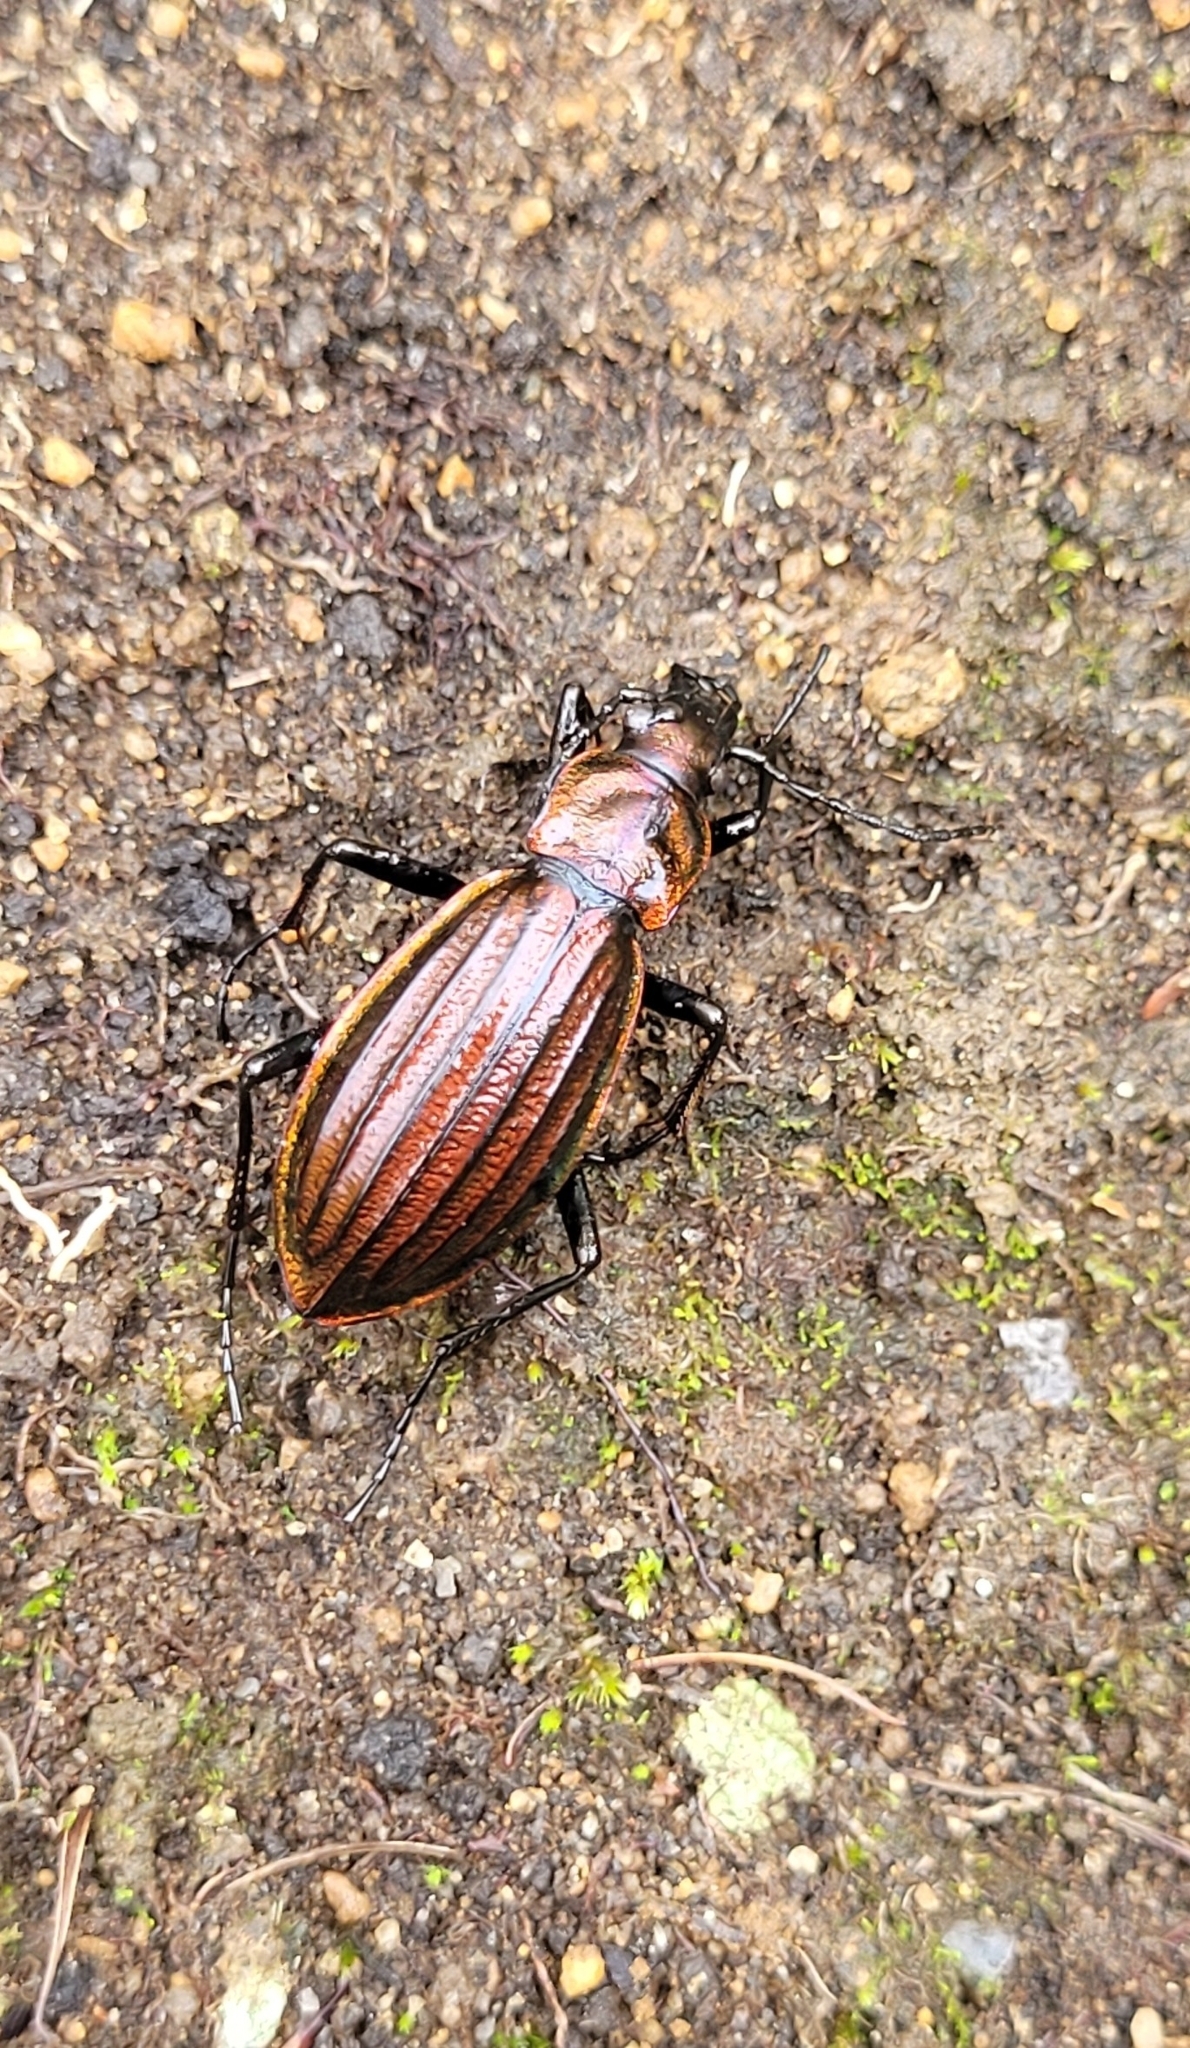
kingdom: Animalia
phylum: Arthropoda
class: Insecta
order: Coleoptera
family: Carabidae
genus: Carabus
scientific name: Carabus kolbei
